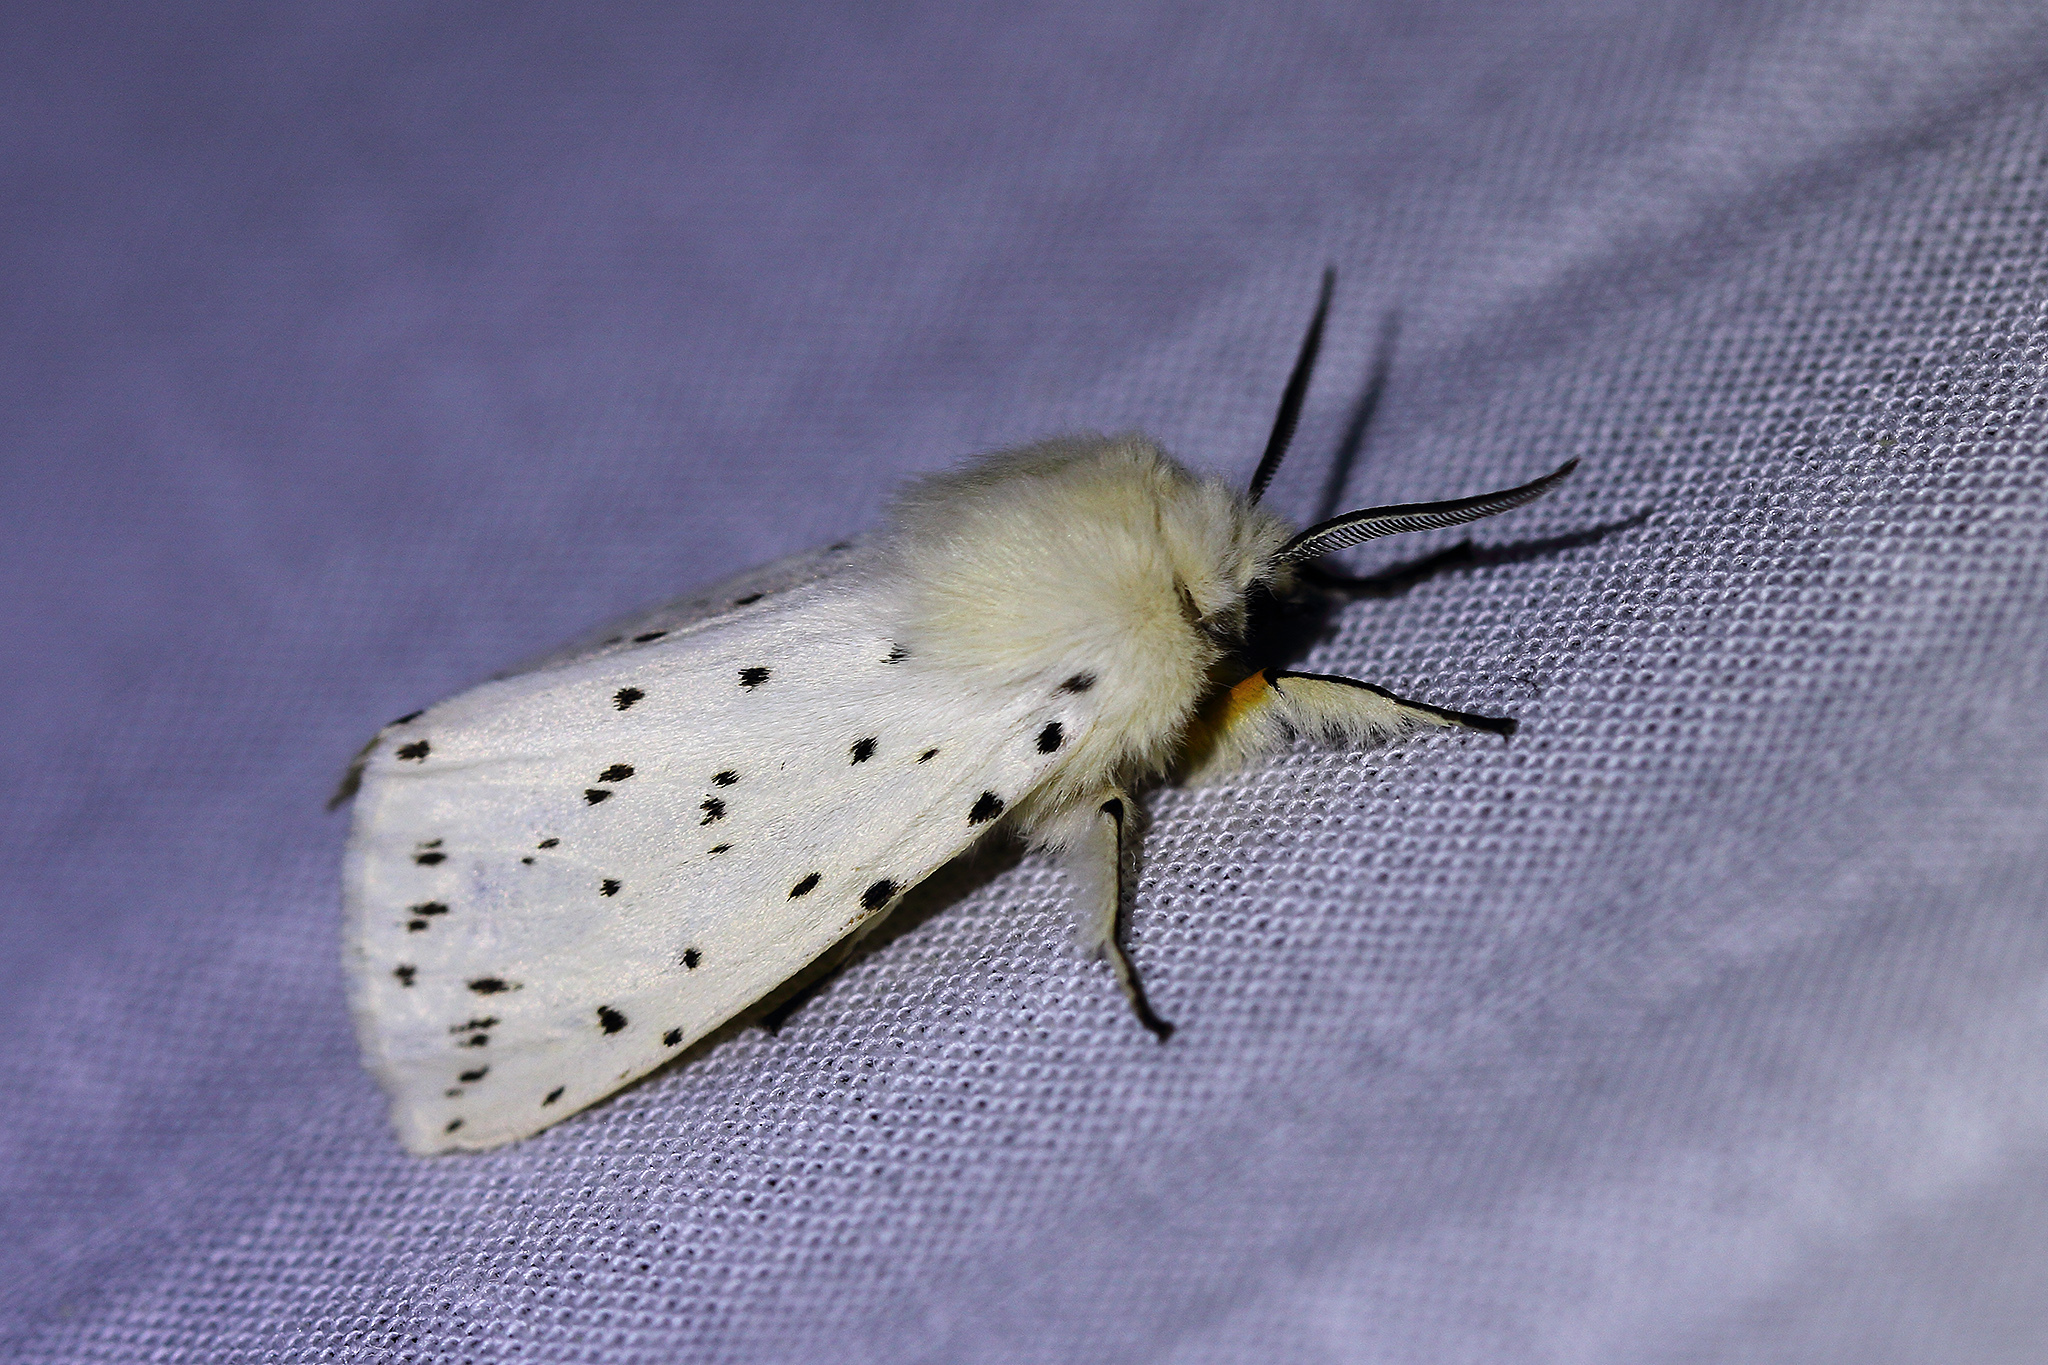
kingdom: Animalia
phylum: Arthropoda
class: Insecta
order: Lepidoptera
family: Erebidae
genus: Spilosoma
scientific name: Spilosoma lubricipeda
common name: White ermine
